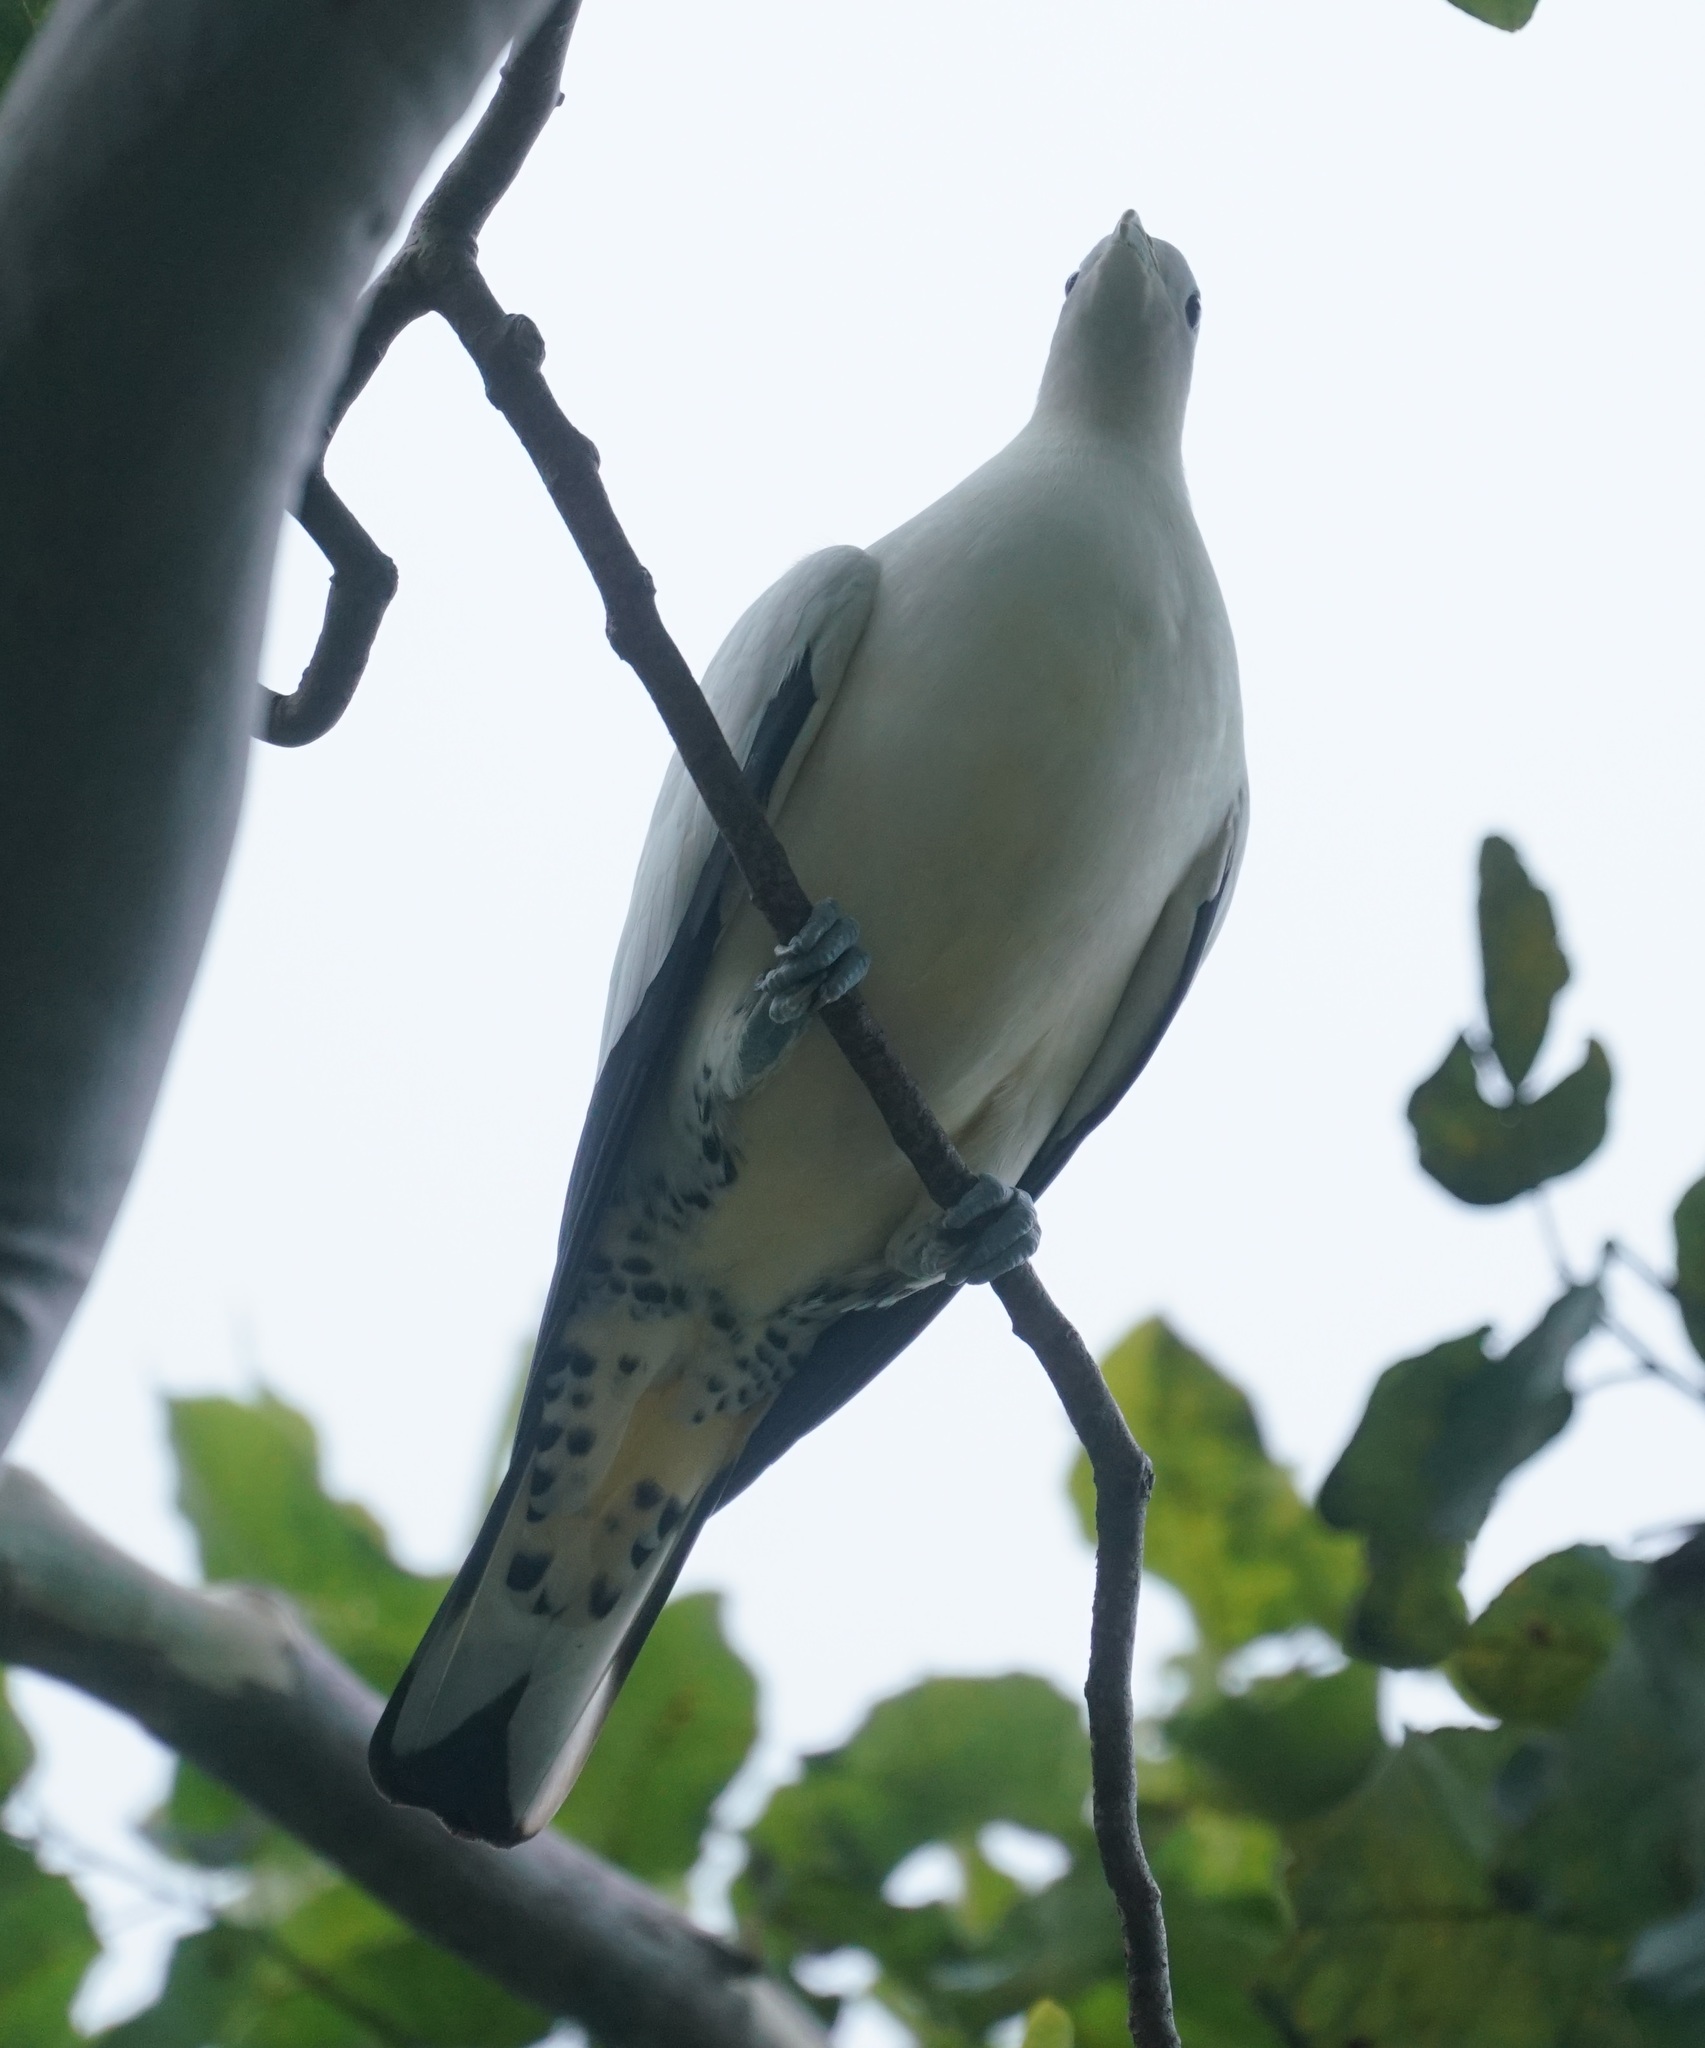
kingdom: Animalia
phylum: Chordata
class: Aves
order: Columbiformes
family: Columbidae
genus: Ducula
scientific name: Ducula spilorrhoa
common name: Torresian imperial pigeon
